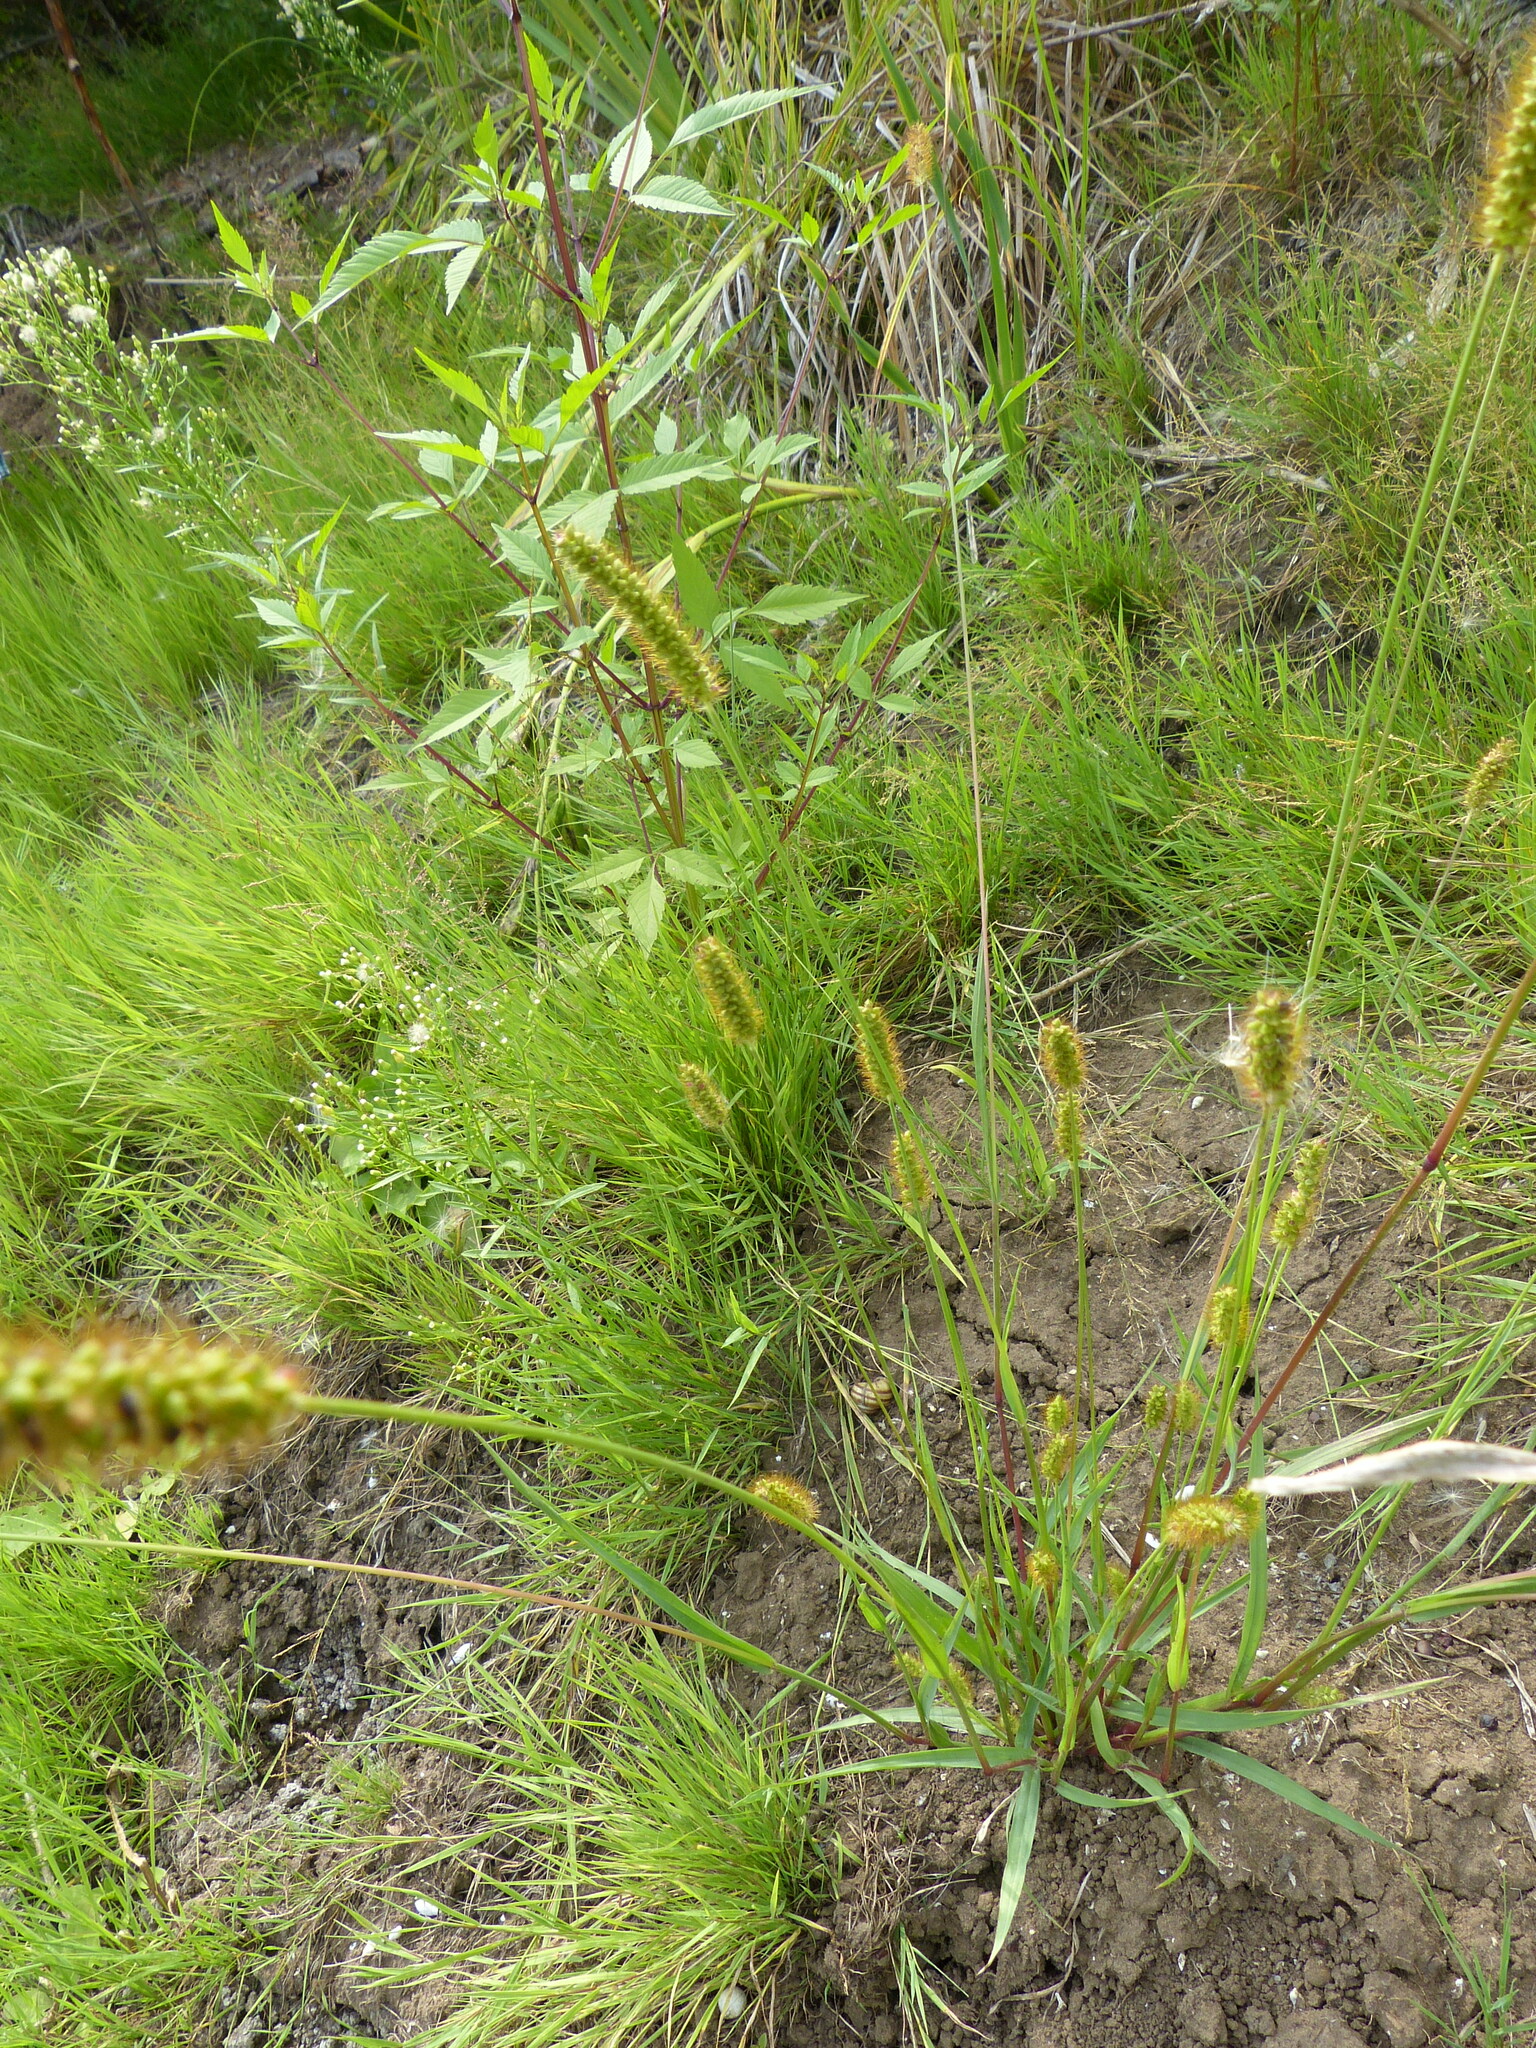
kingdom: Plantae
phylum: Tracheophyta
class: Liliopsida
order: Poales
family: Poaceae
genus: Setaria
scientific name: Setaria pumila
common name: Yellow bristle-grass
